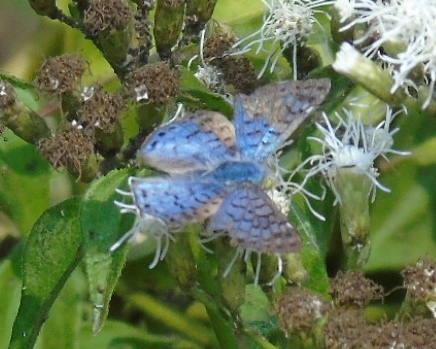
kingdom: Animalia
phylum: Arthropoda
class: Insecta
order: Lepidoptera
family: Riodinidae
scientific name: Riodinidae
